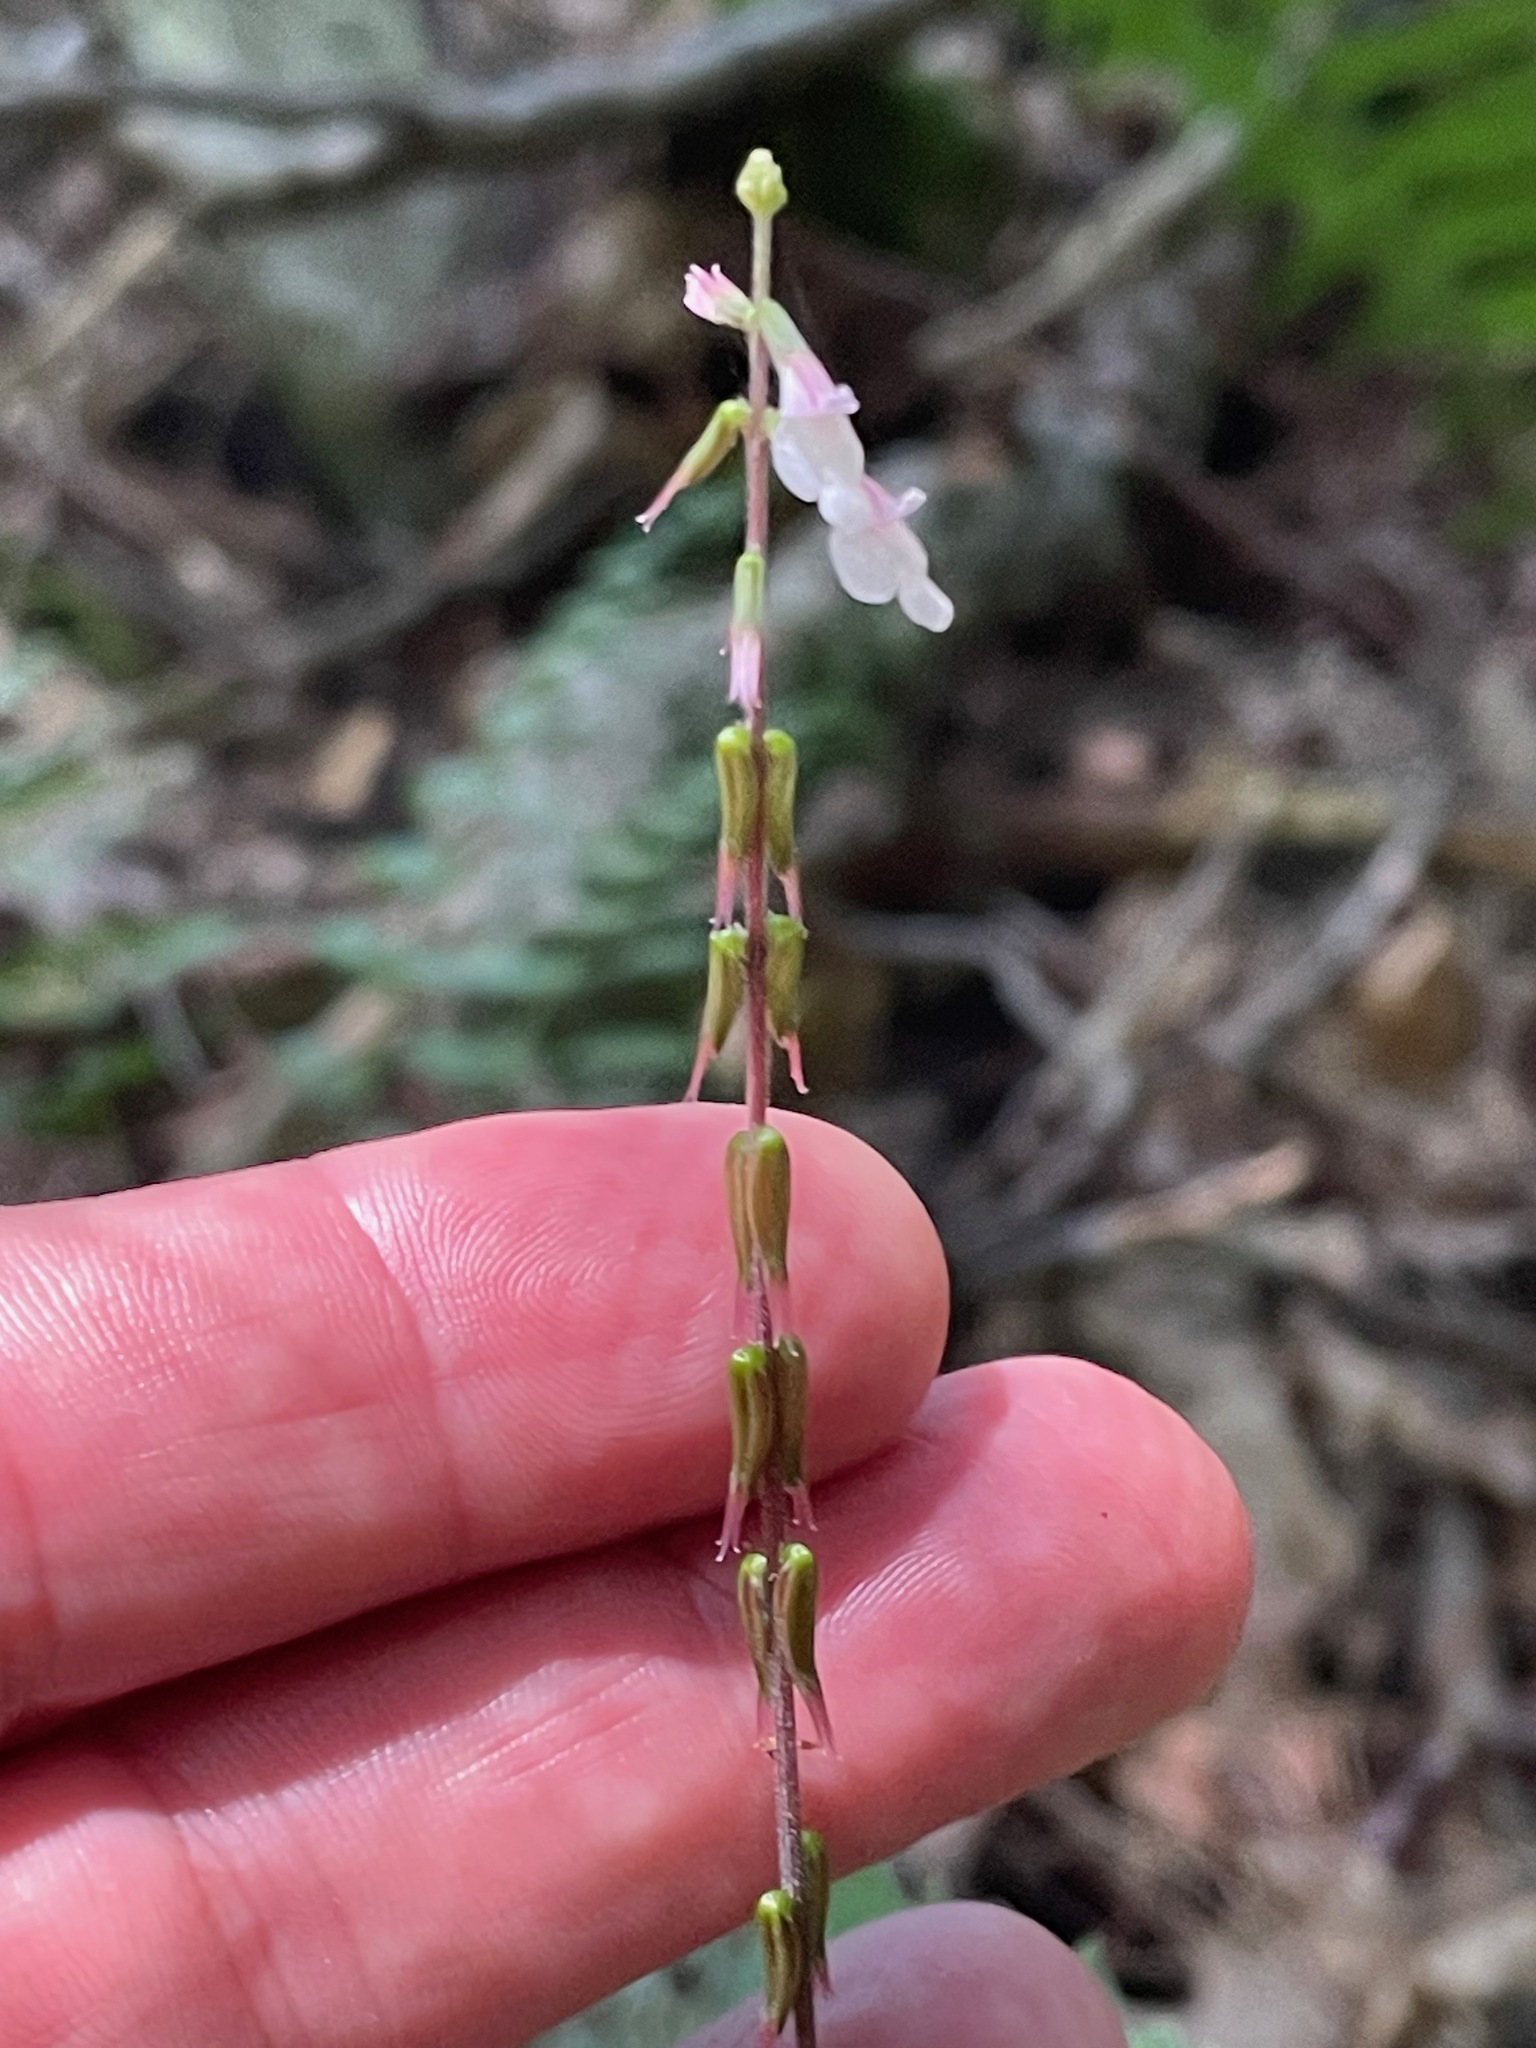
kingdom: Plantae
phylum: Tracheophyta
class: Magnoliopsida
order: Lamiales
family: Phrymaceae
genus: Phryma
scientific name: Phryma leptostachya
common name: American lopseed
